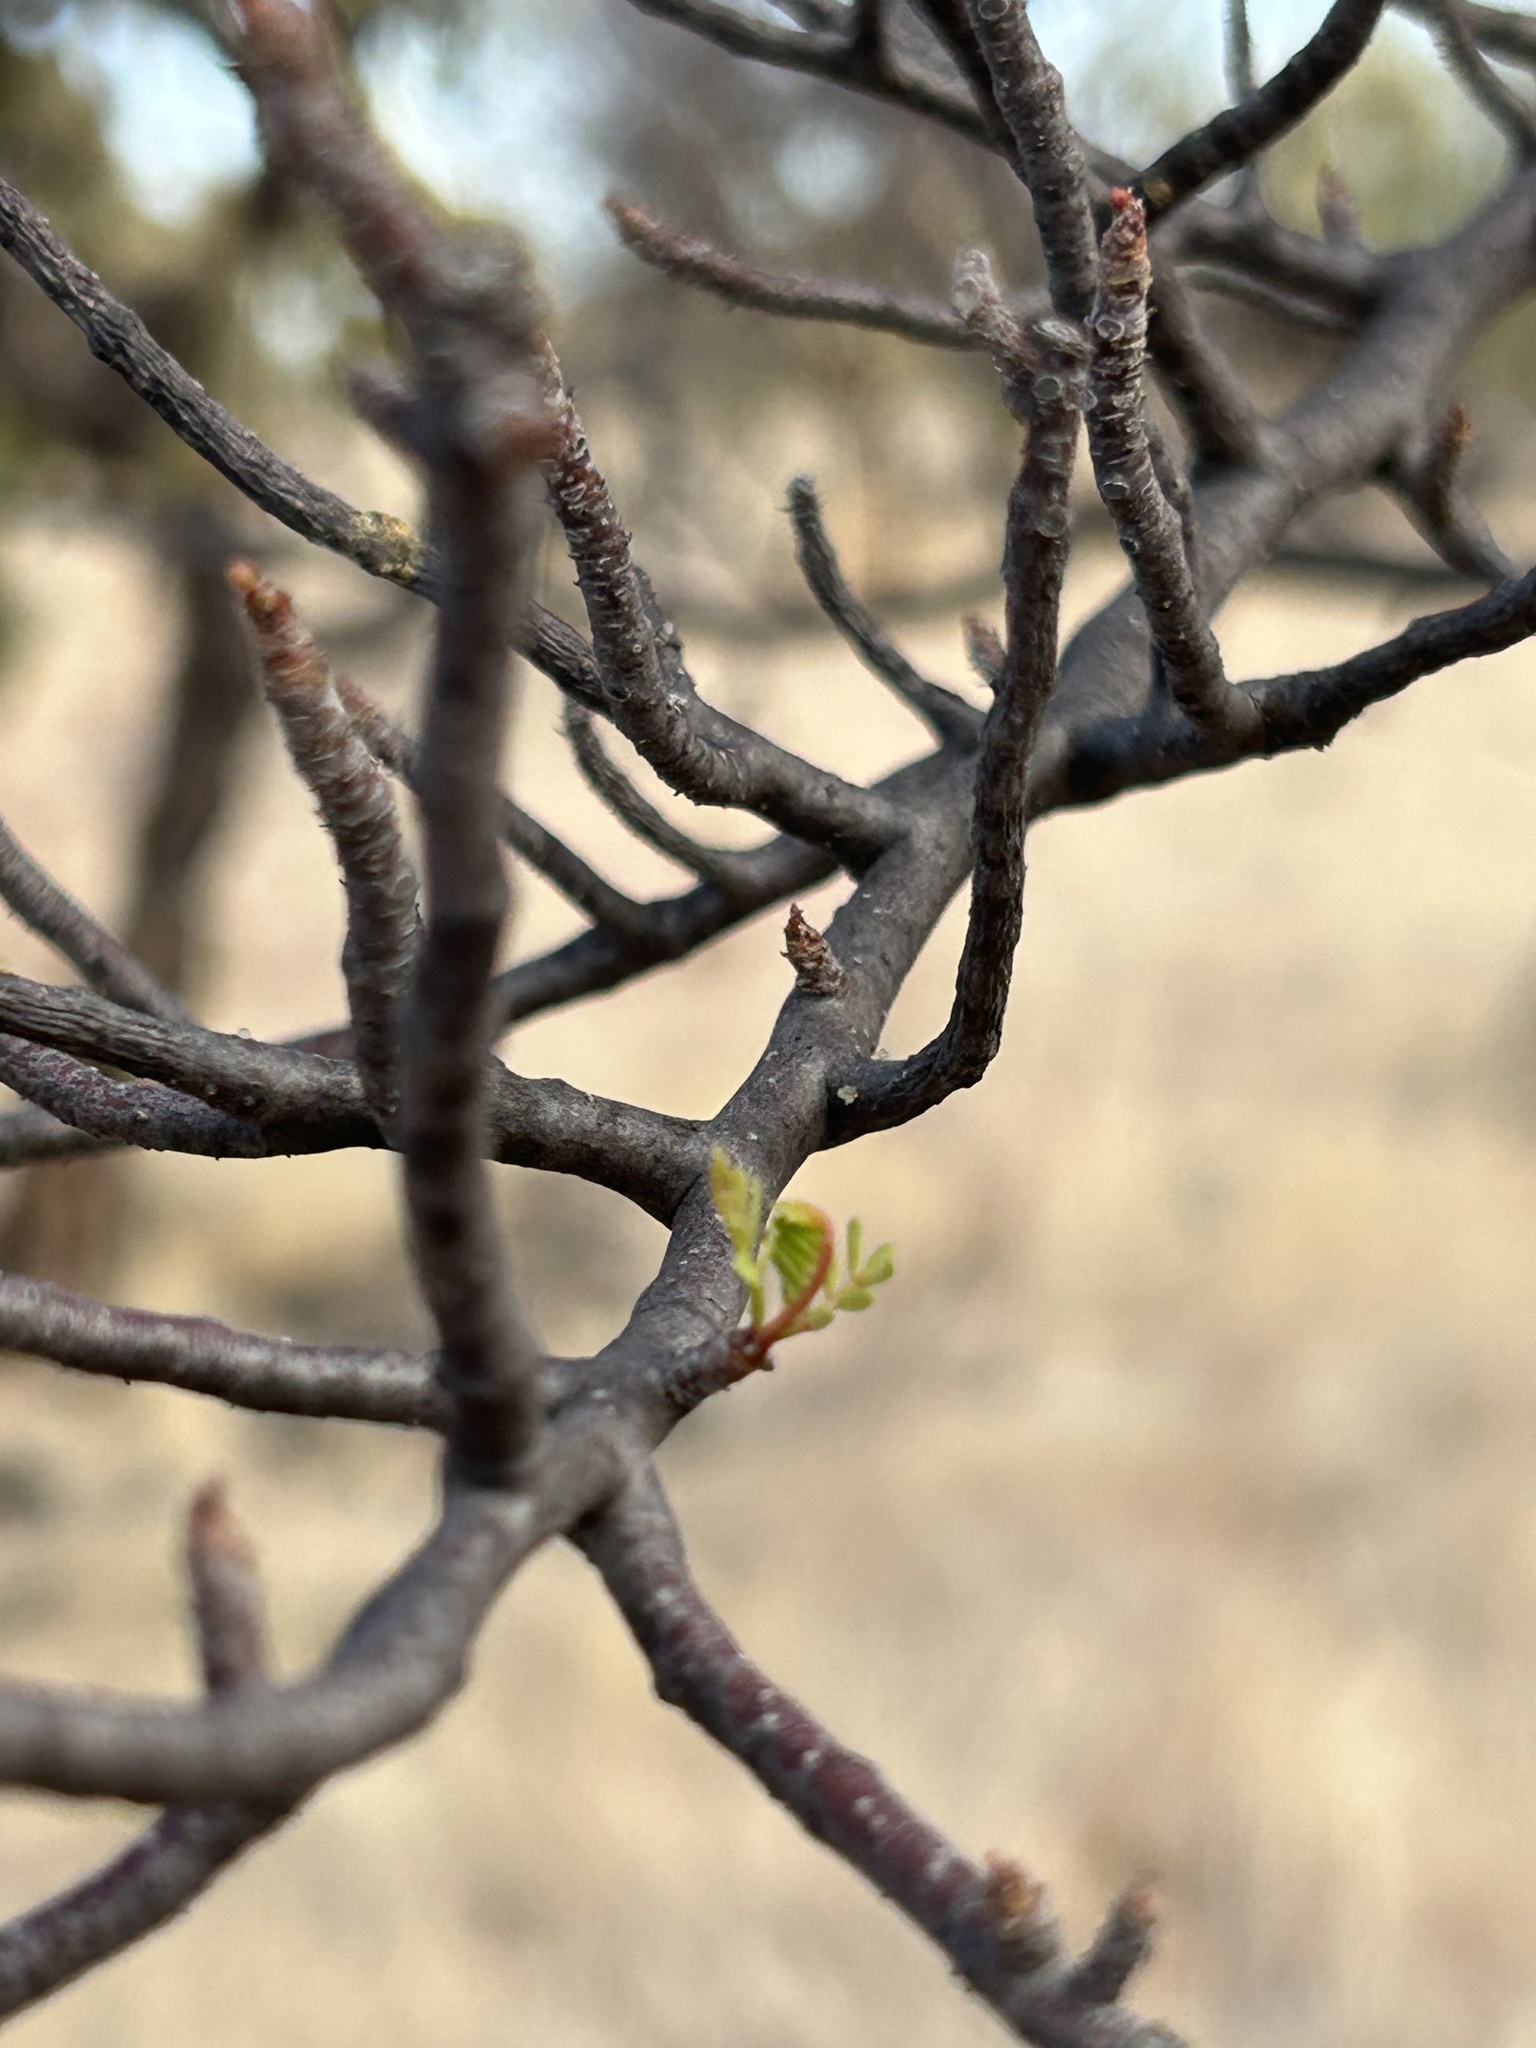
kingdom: Plantae
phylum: Tracheophyta
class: Magnoliopsida
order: Sapindales
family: Burseraceae
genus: Bursera
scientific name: Bursera microphylla
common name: Elephant tree
